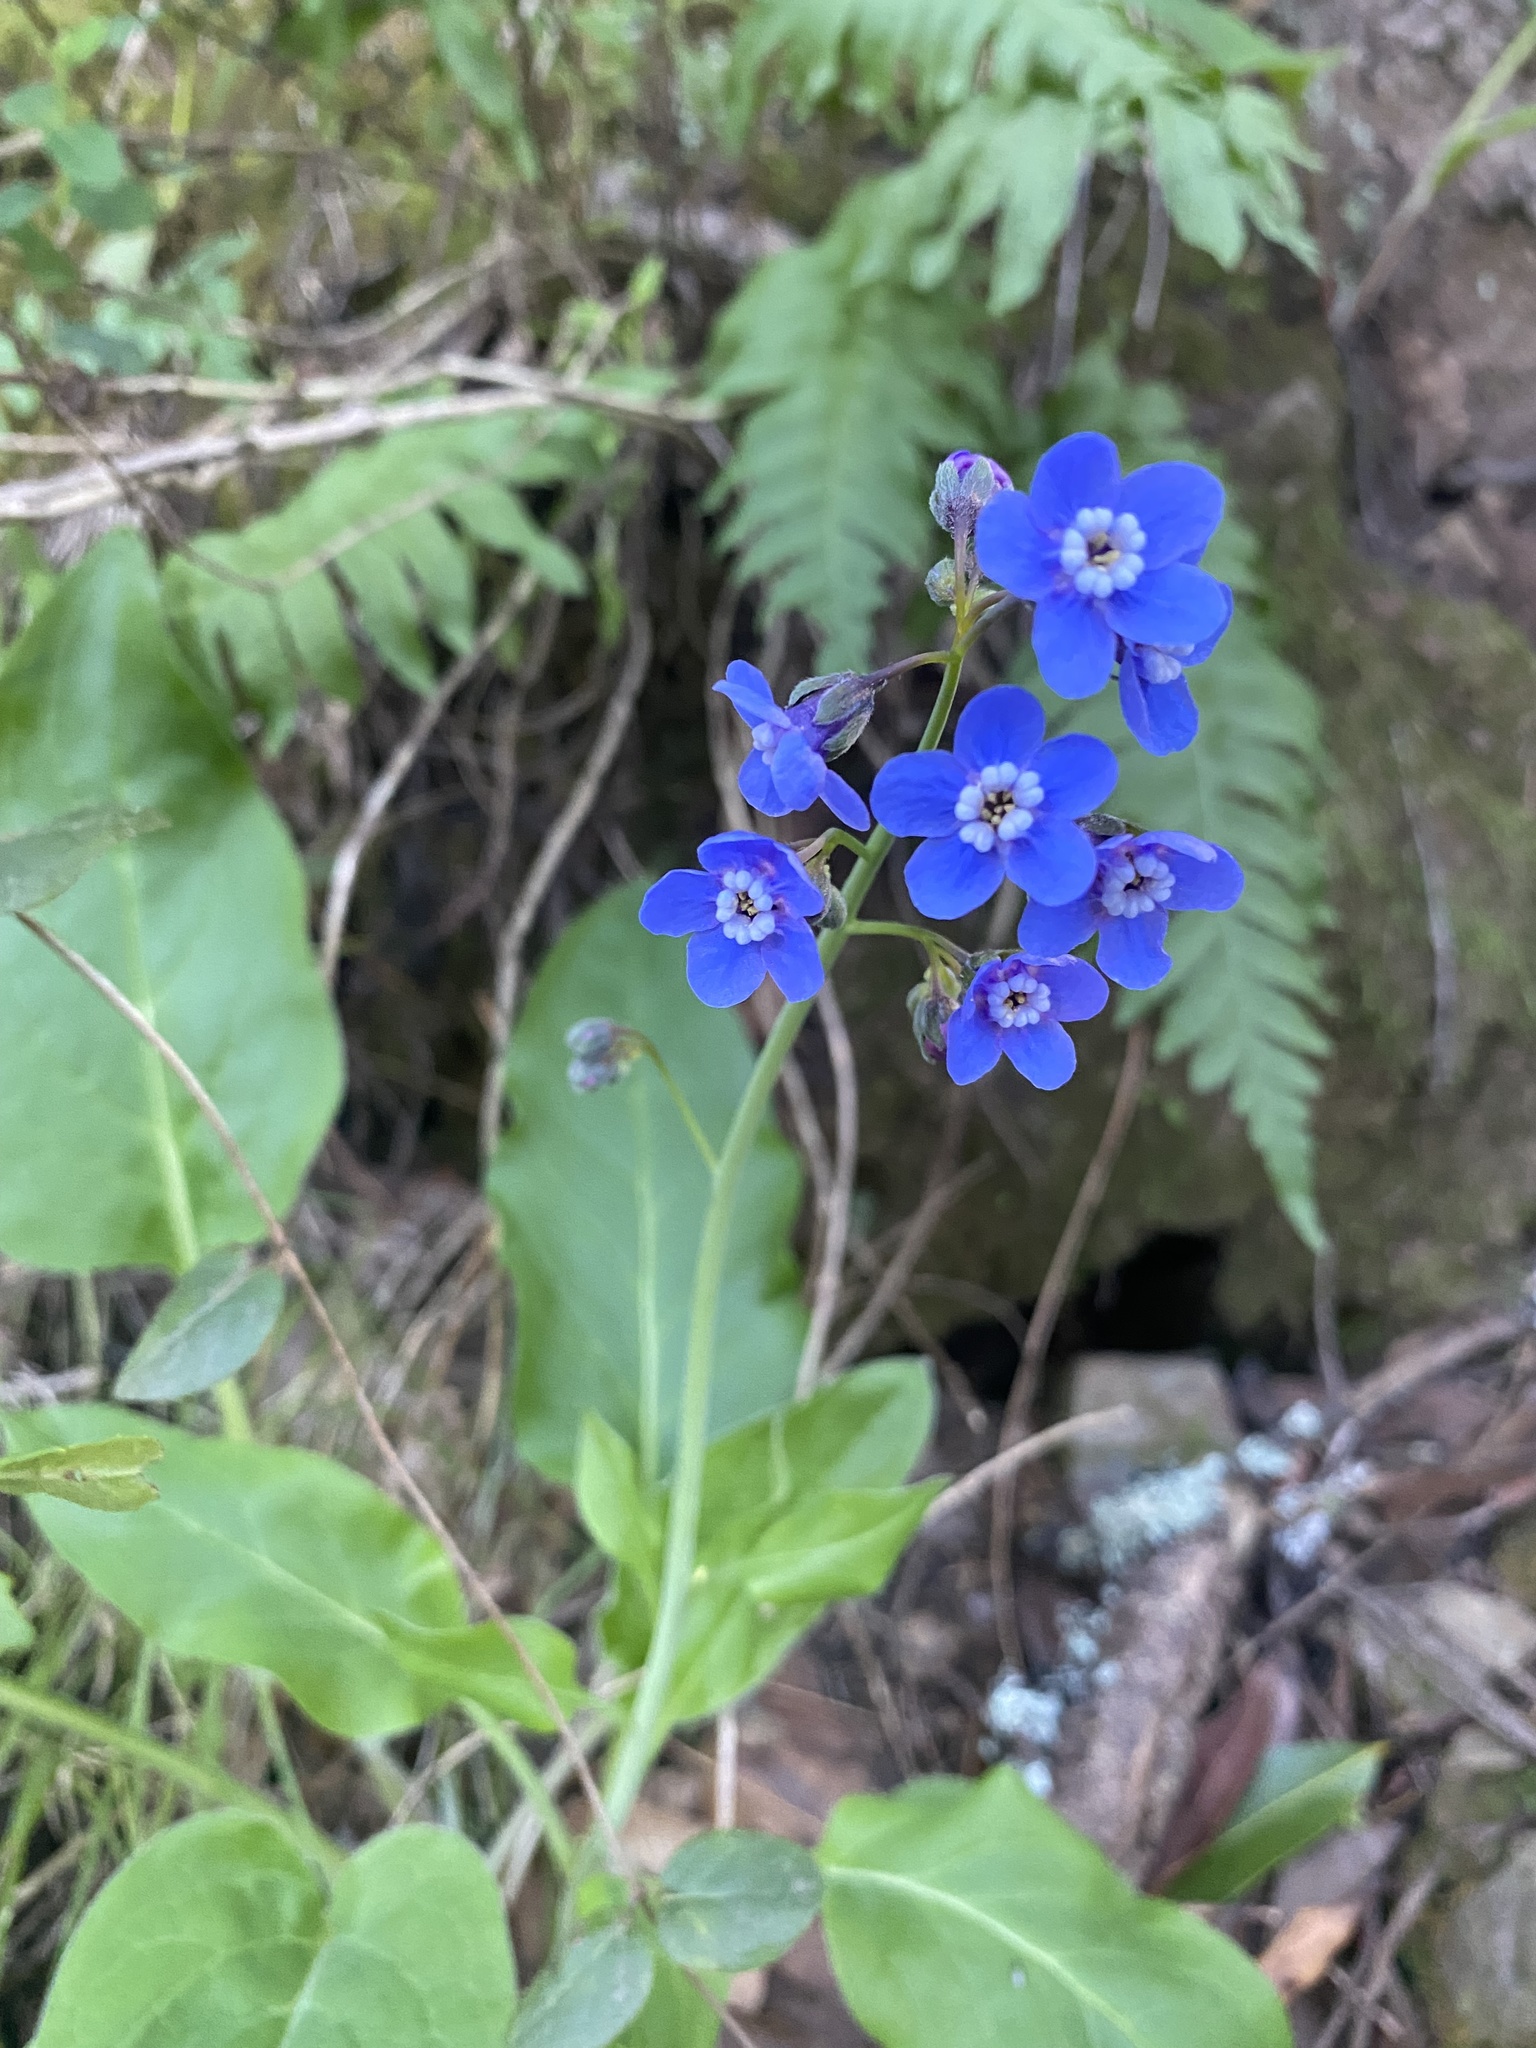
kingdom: Plantae
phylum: Tracheophyta
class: Magnoliopsida
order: Boraginales
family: Boraginaceae
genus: Adelinia
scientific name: Adelinia grande
